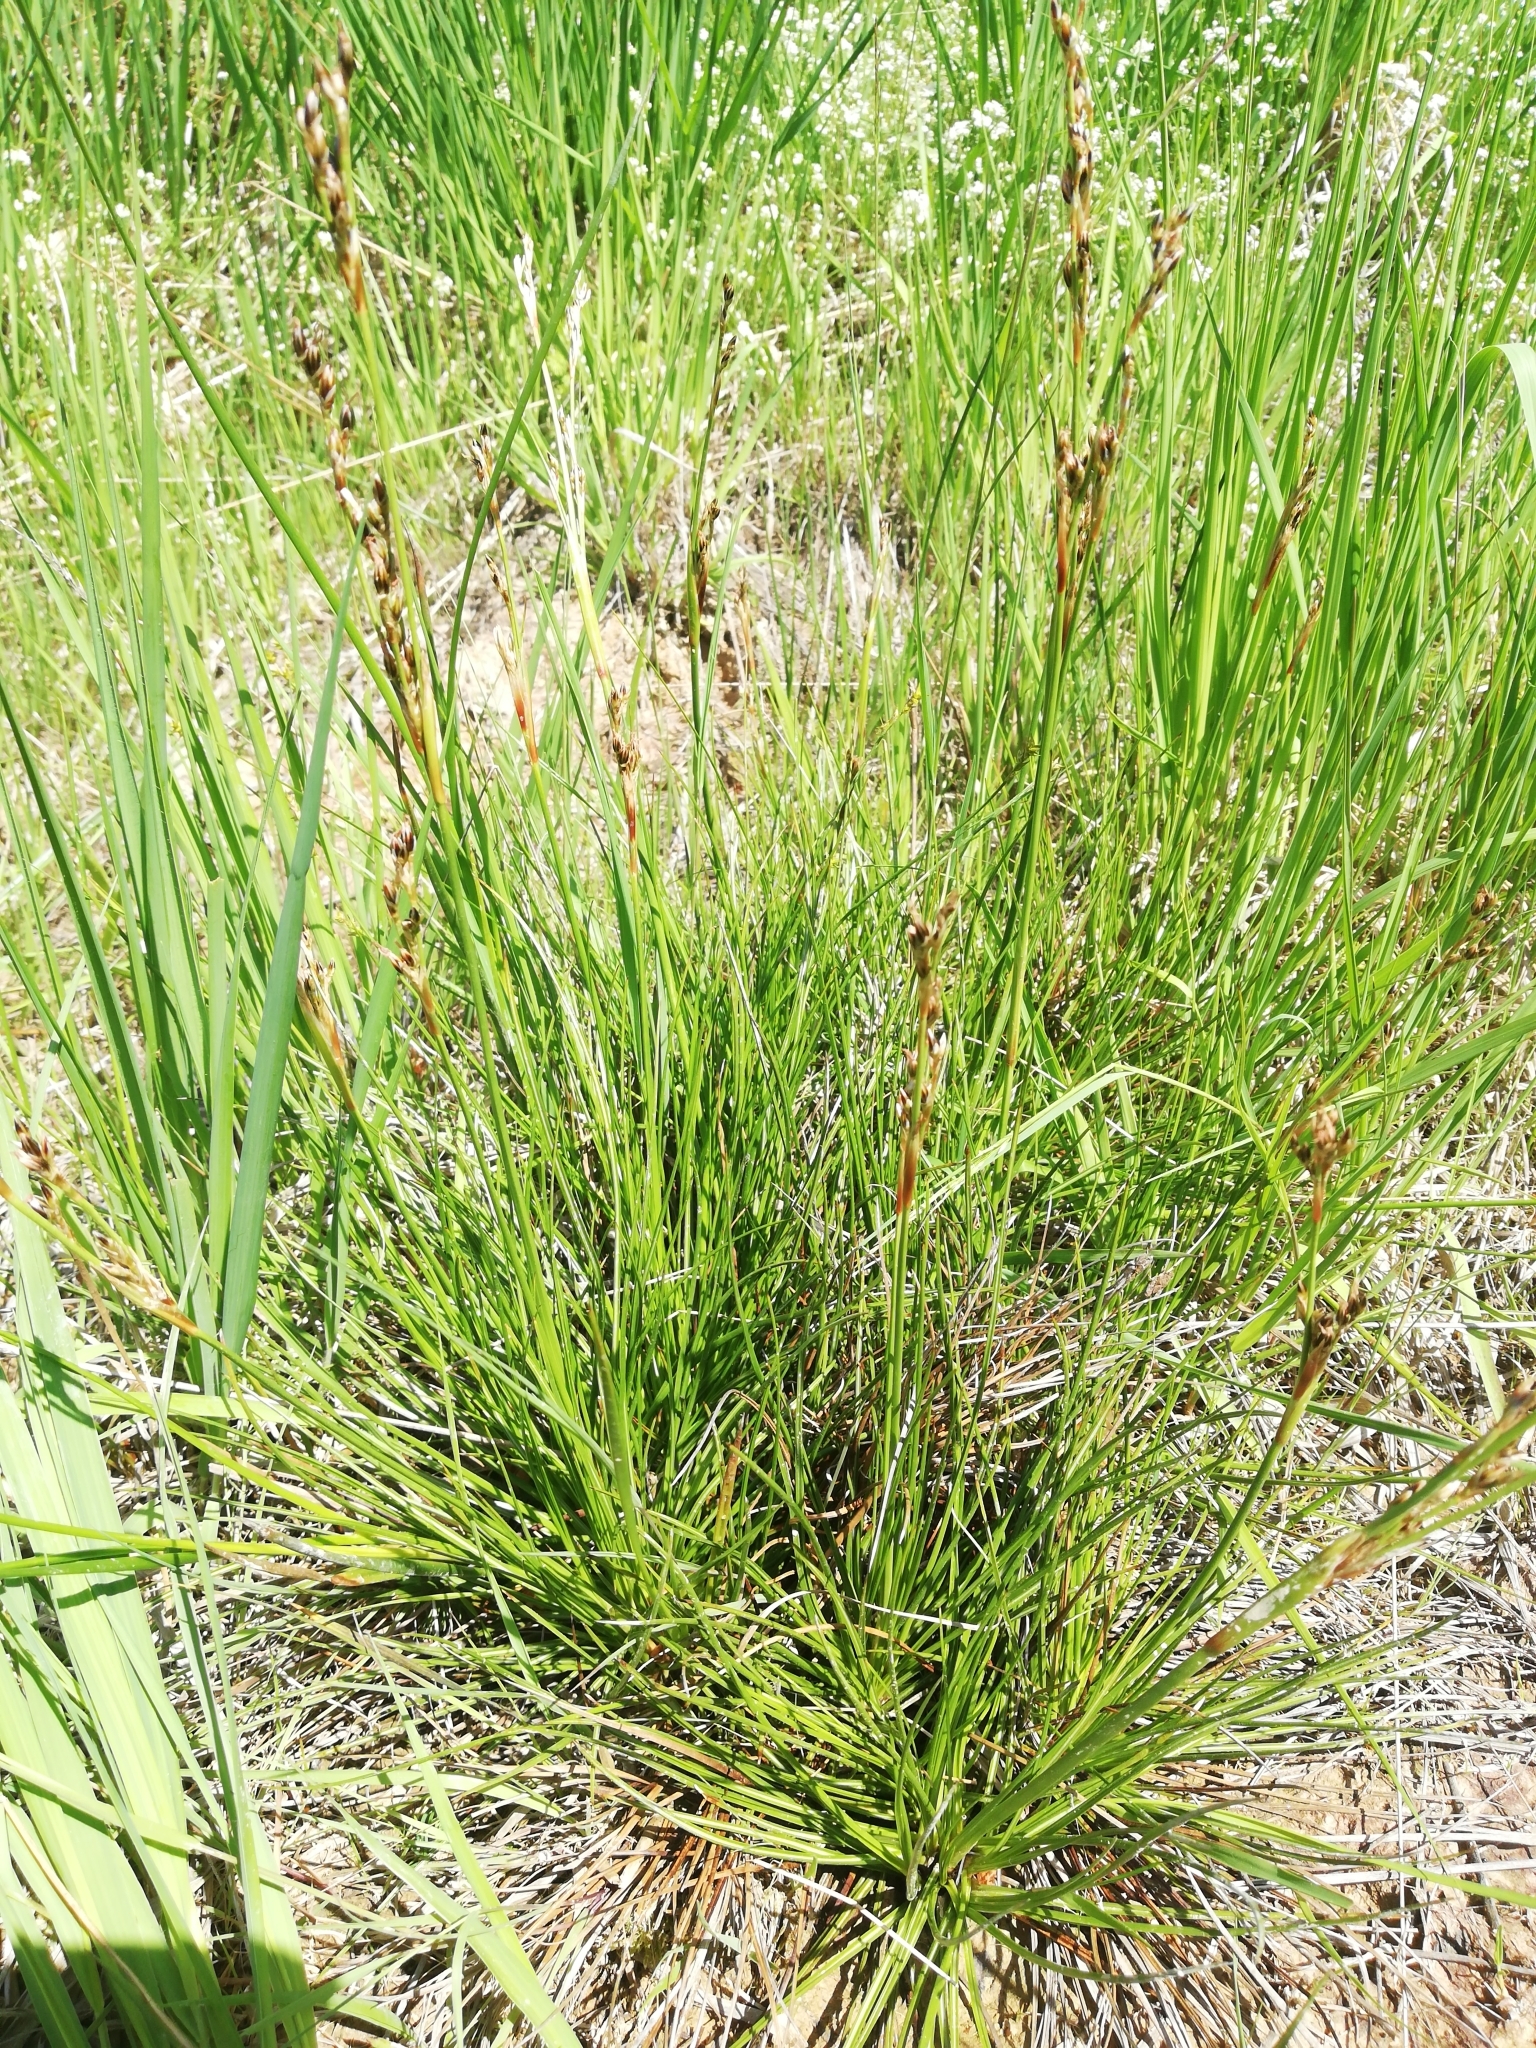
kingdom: Plantae
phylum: Tracheophyta
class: Liliopsida
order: Poales
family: Juncaceae
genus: Juncus
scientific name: Juncus squarrosus
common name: Heath rush
